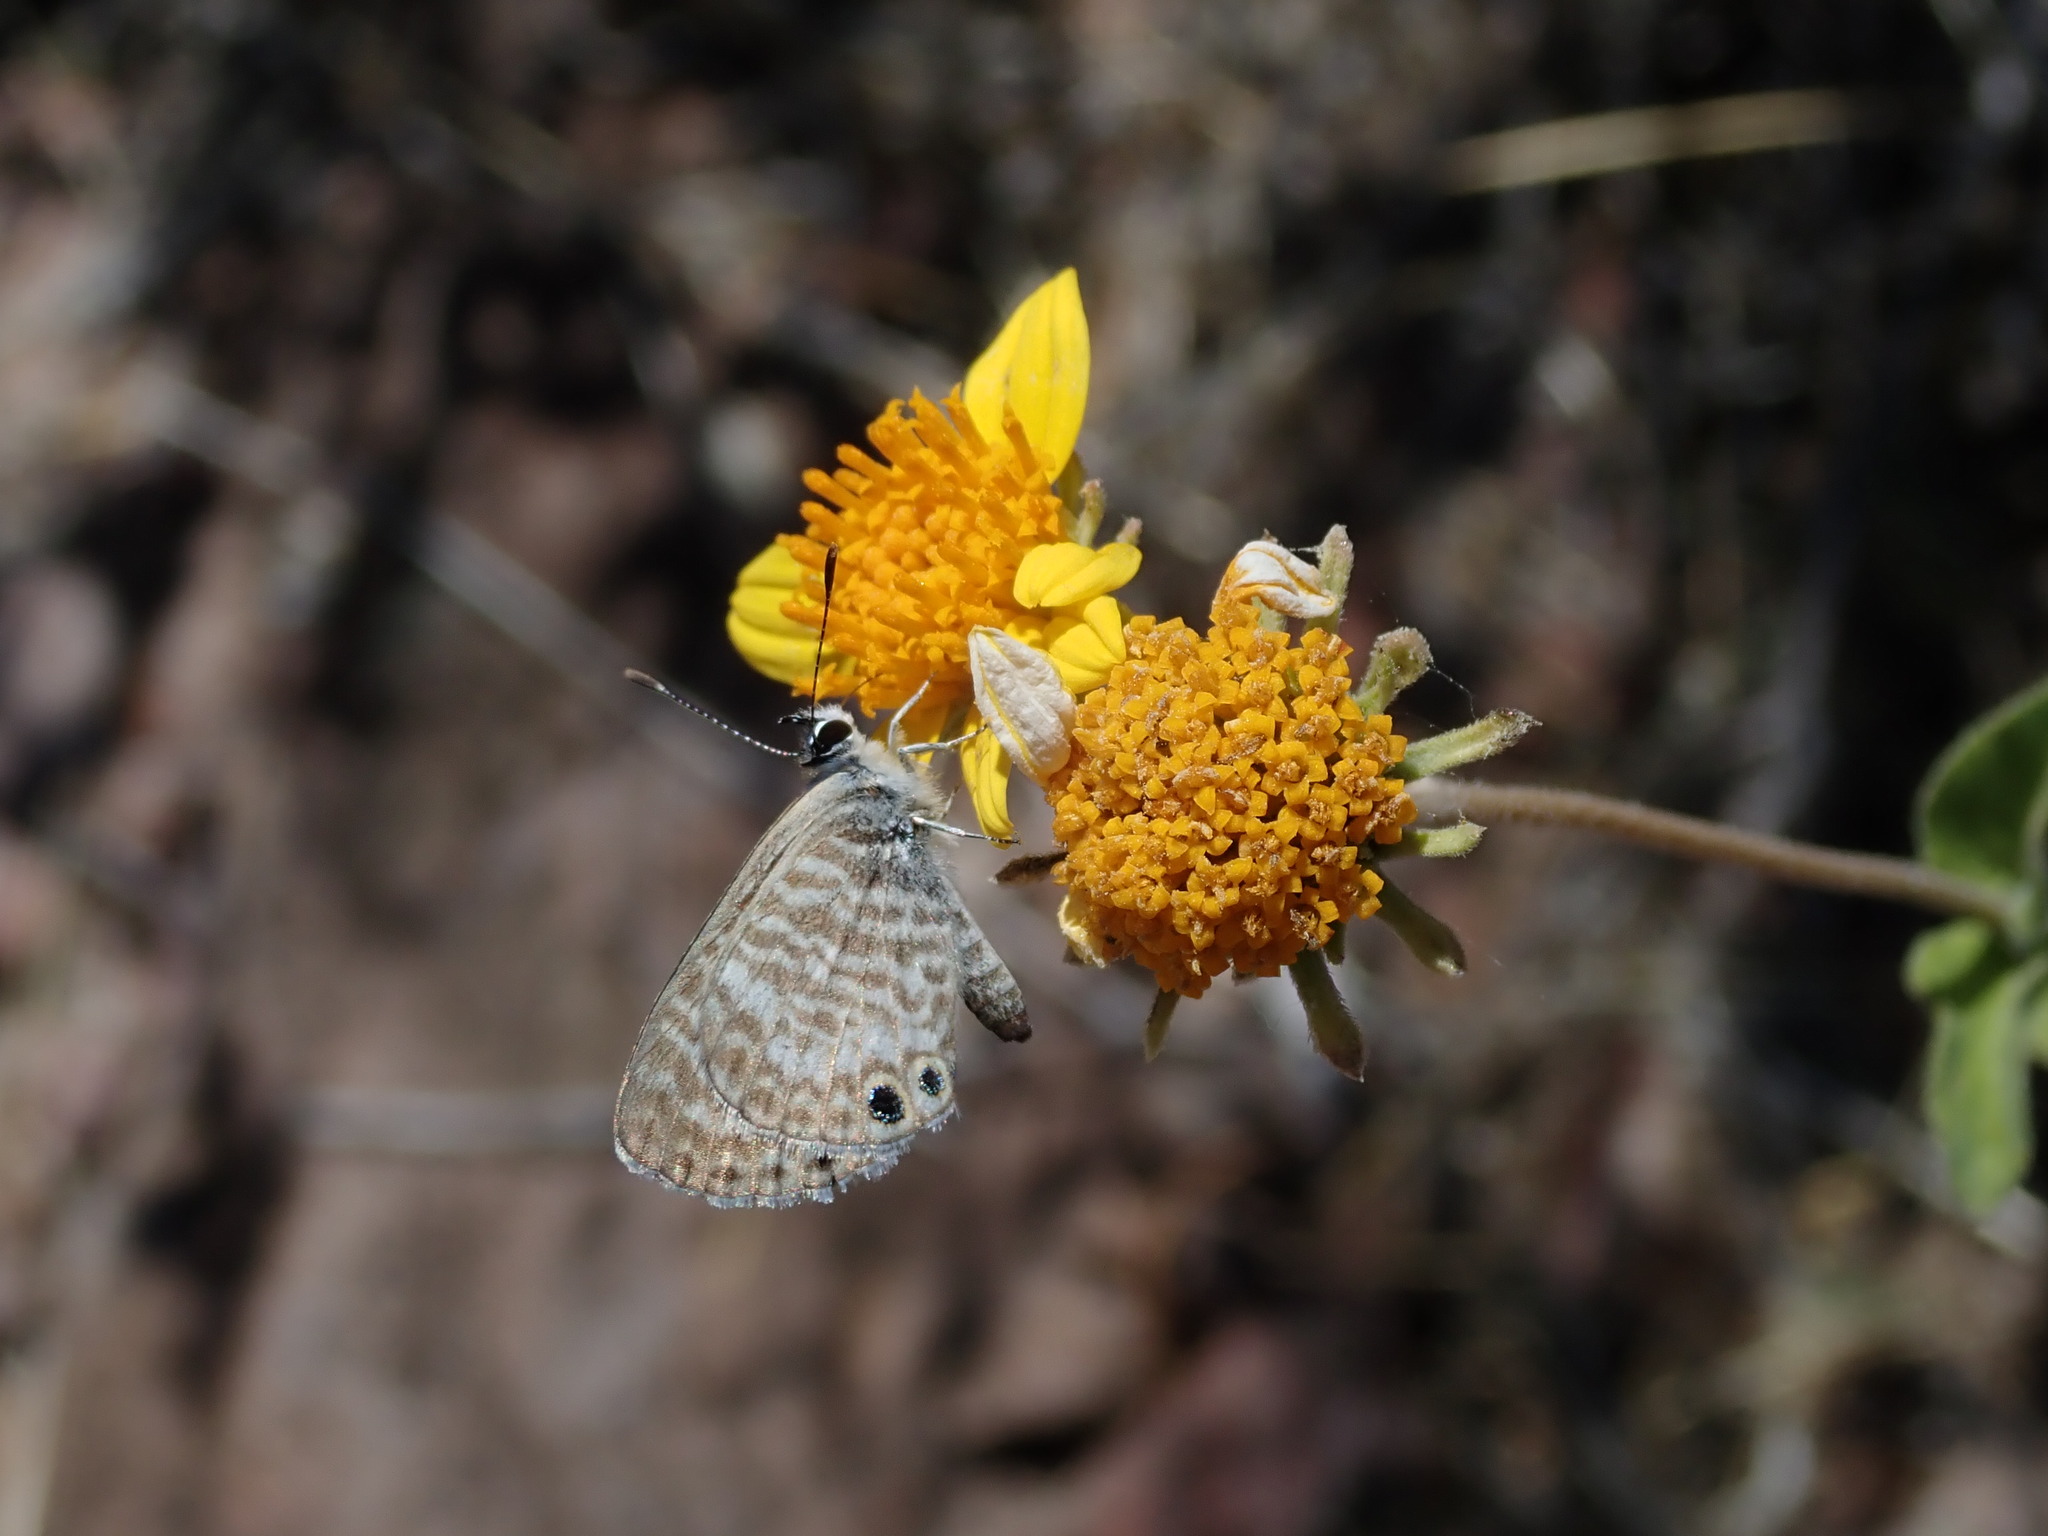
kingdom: Animalia
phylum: Arthropoda
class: Insecta
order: Lepidoptera
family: Lycaenidae
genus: Leptotes
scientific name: Leptotes marina
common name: Marine blue
